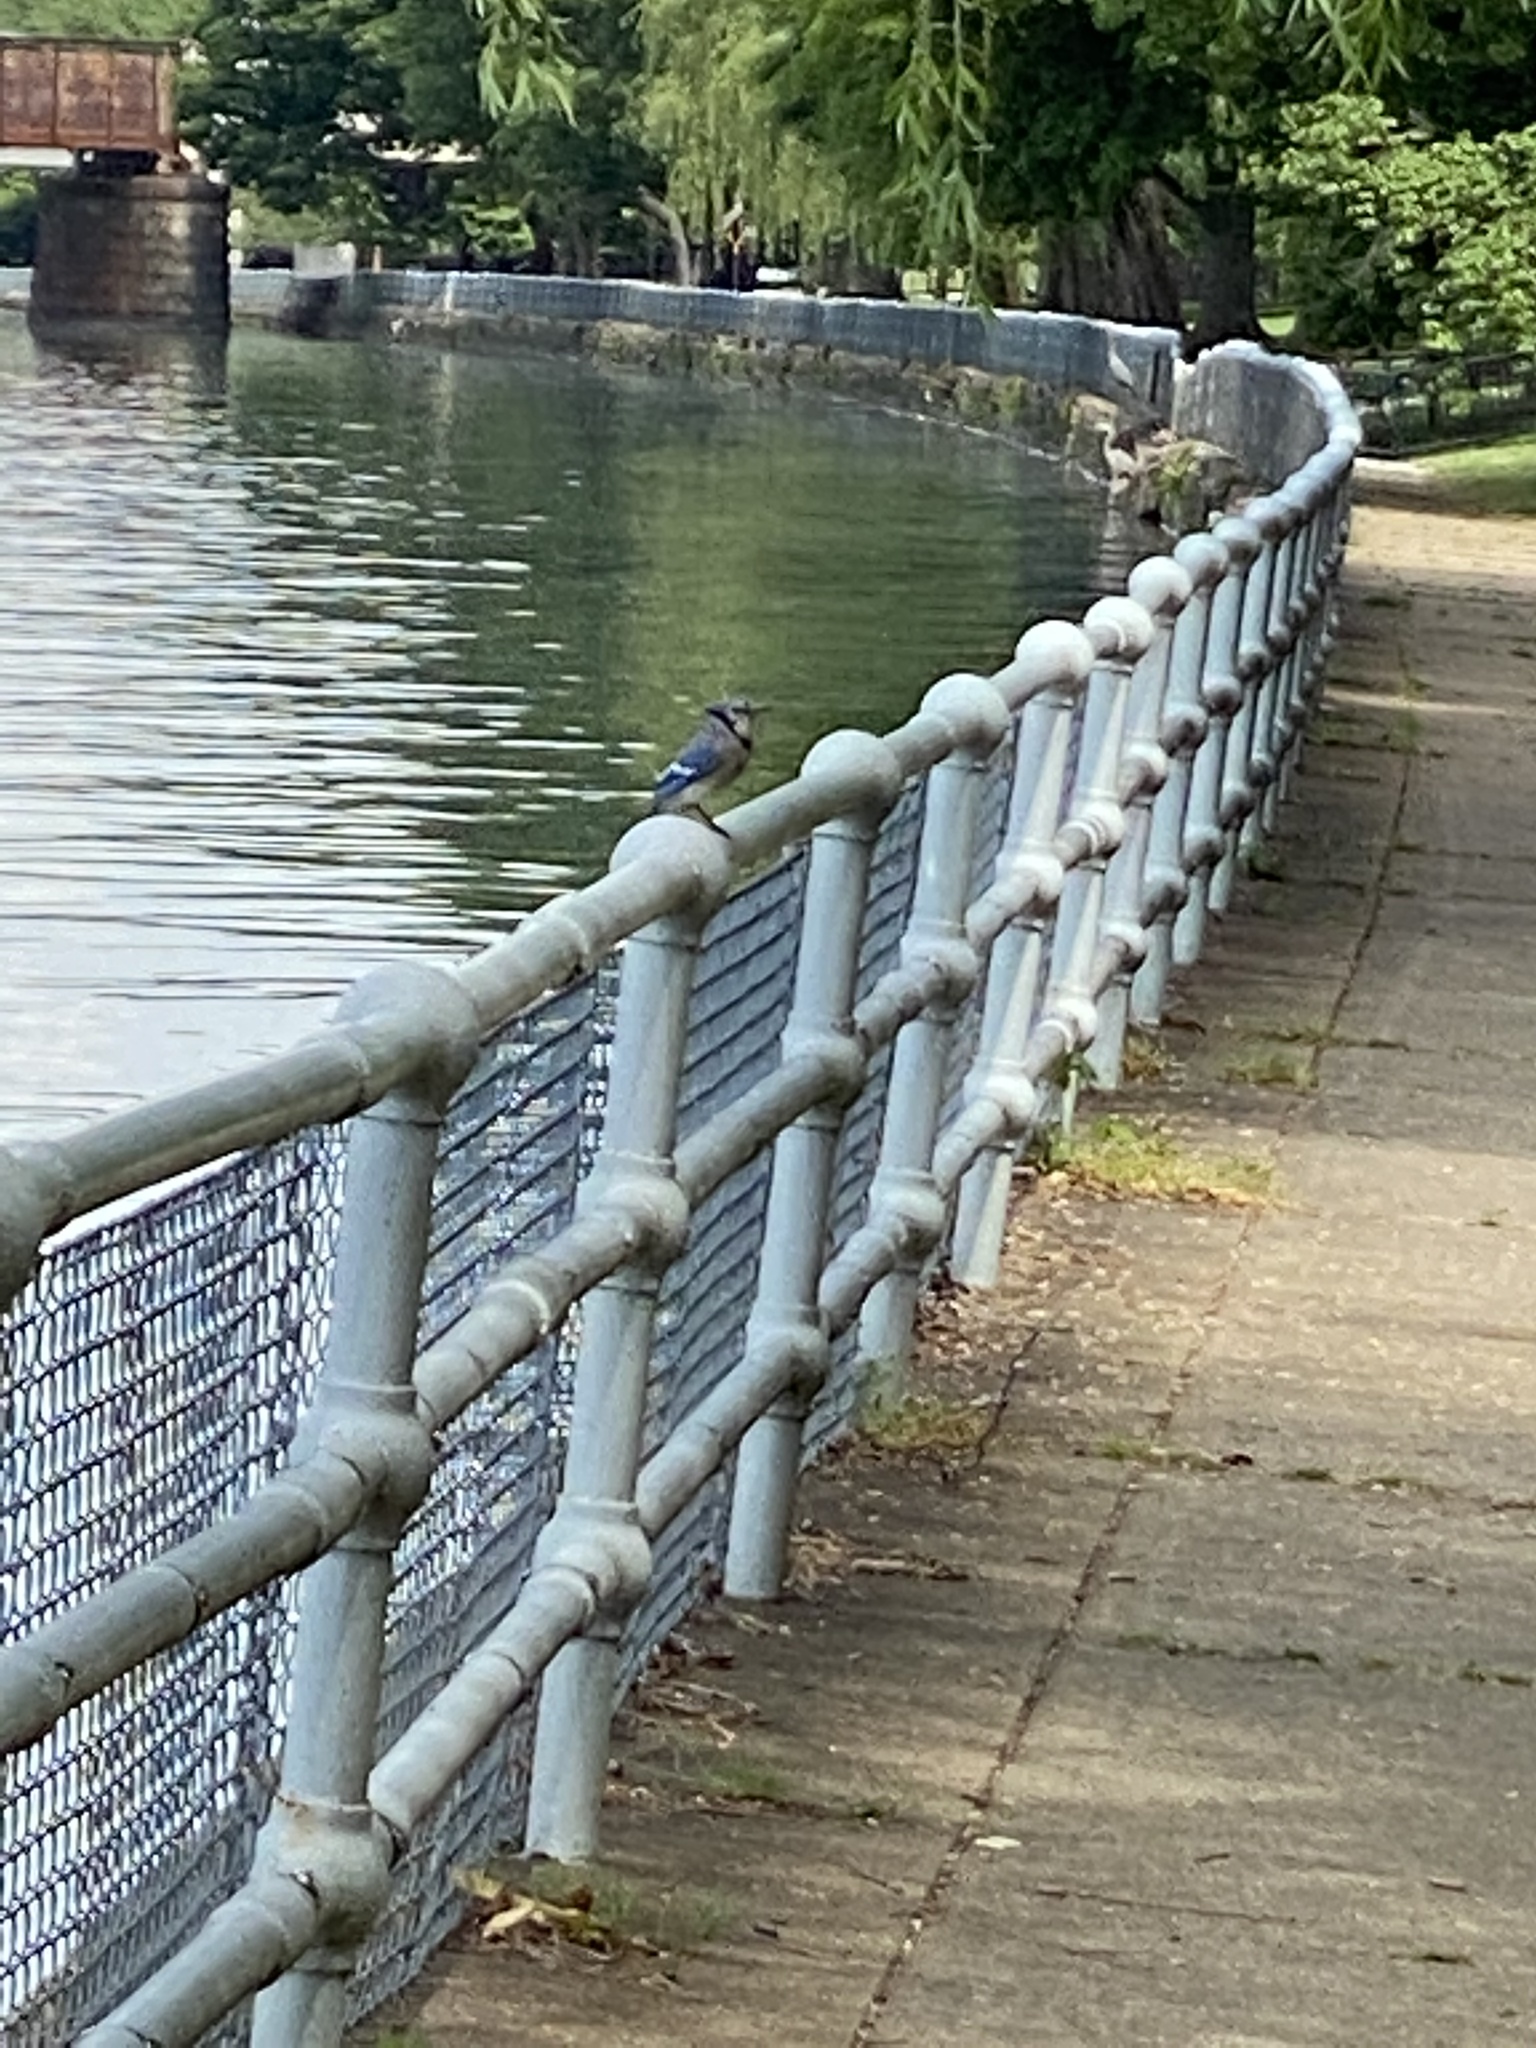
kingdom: Animalia
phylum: Chordata
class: Aves
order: Passeriformes
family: Corvidae
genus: Cyanocitta
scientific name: Cyanocitta cristata
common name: Blue jay
